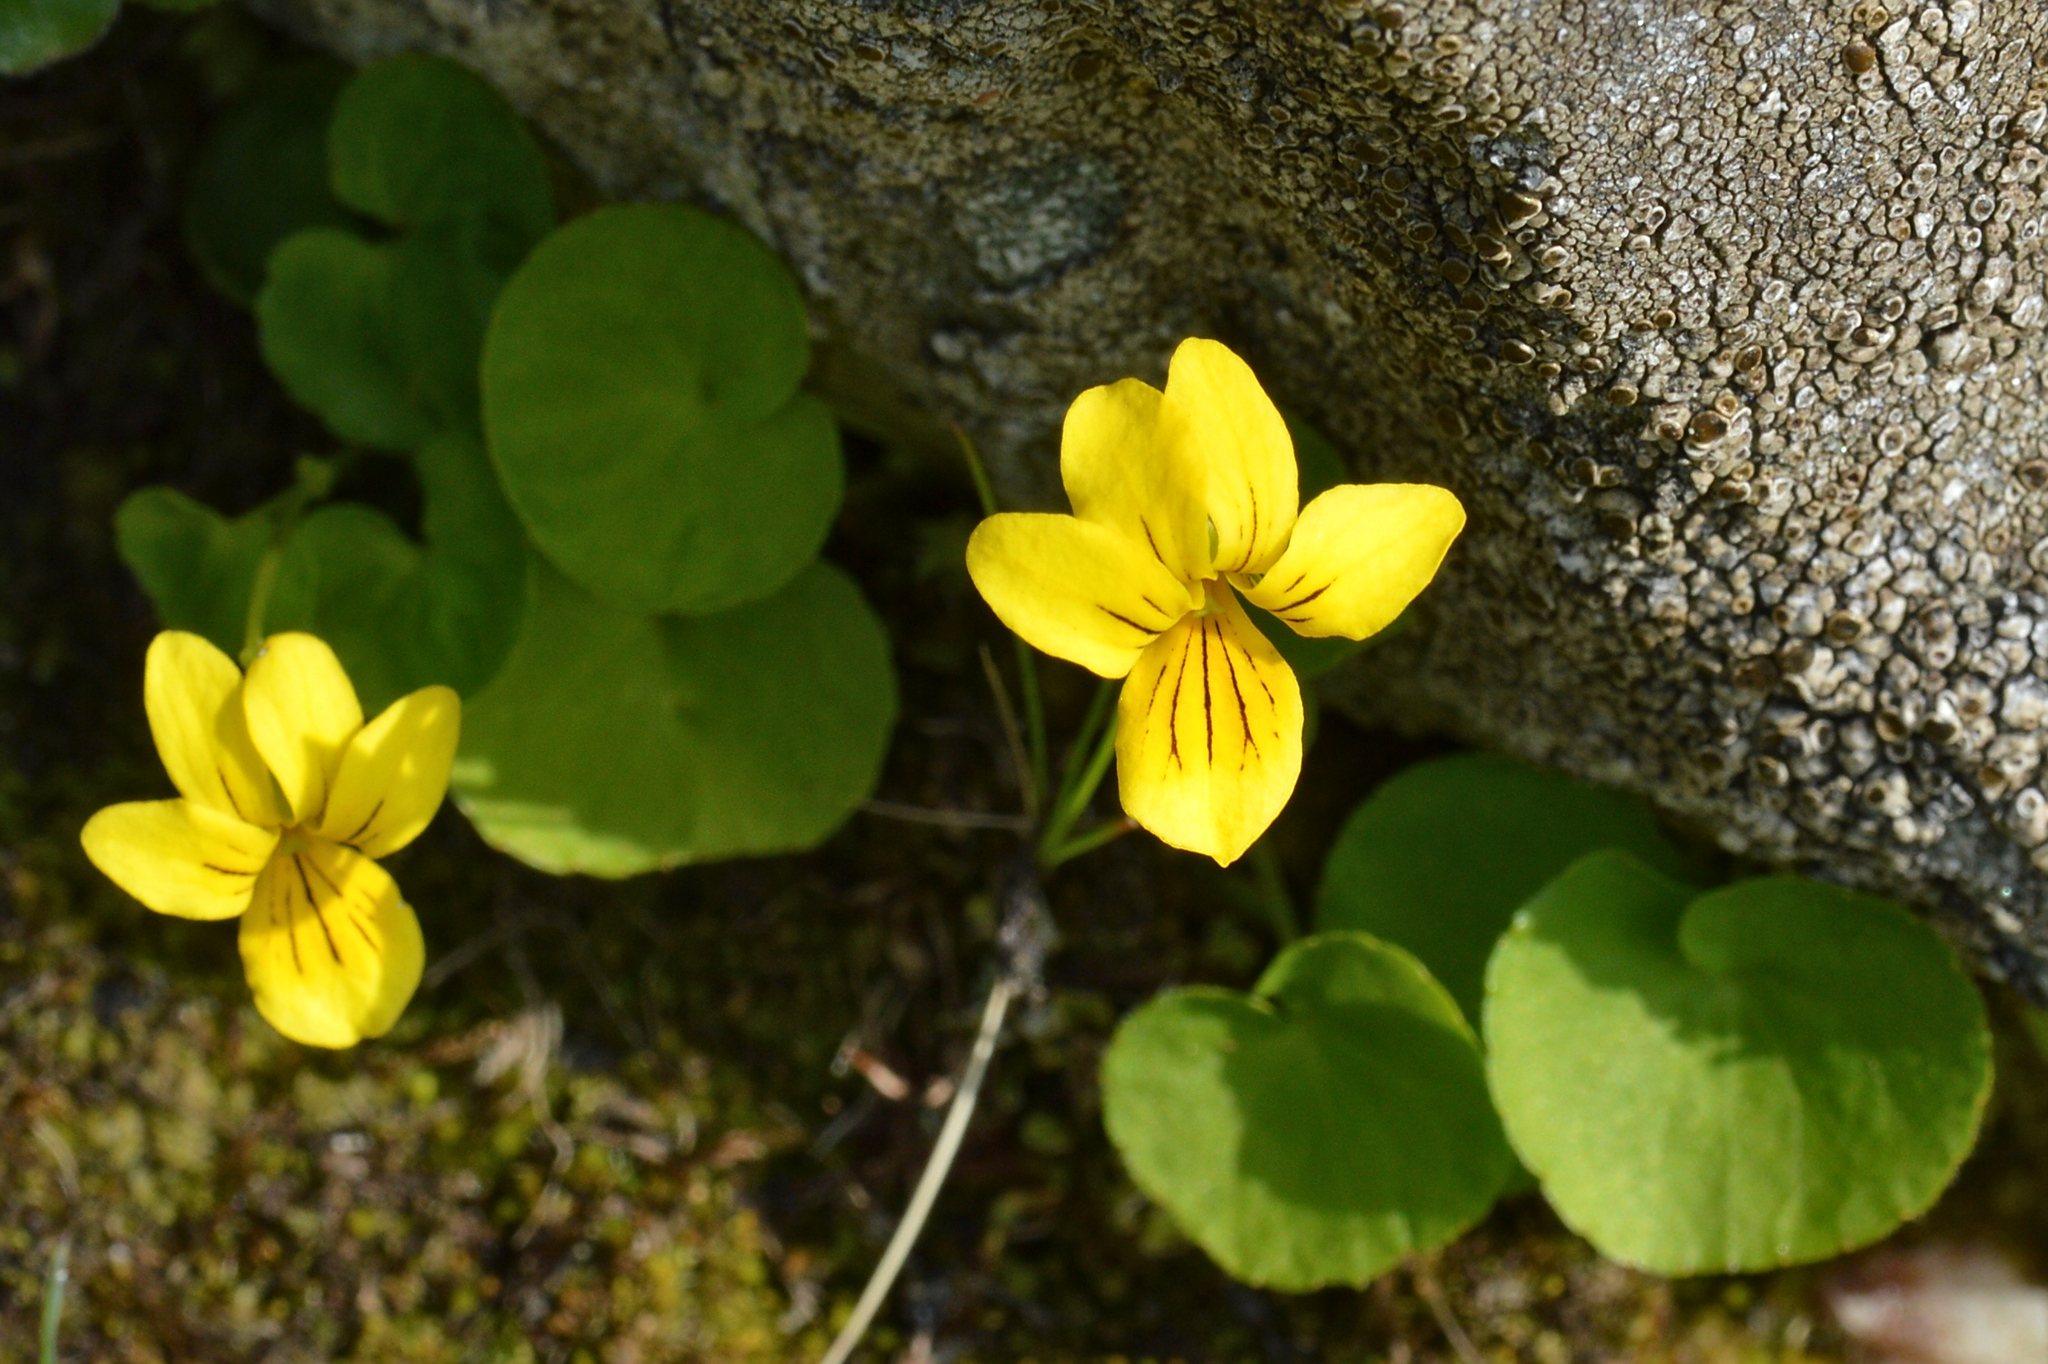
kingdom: Plantae
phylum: Tracheophyta
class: Magnoliopsida
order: Malpighiales
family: Violaceae
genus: Viola
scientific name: Viola biflora
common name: Alpine yellow violet
